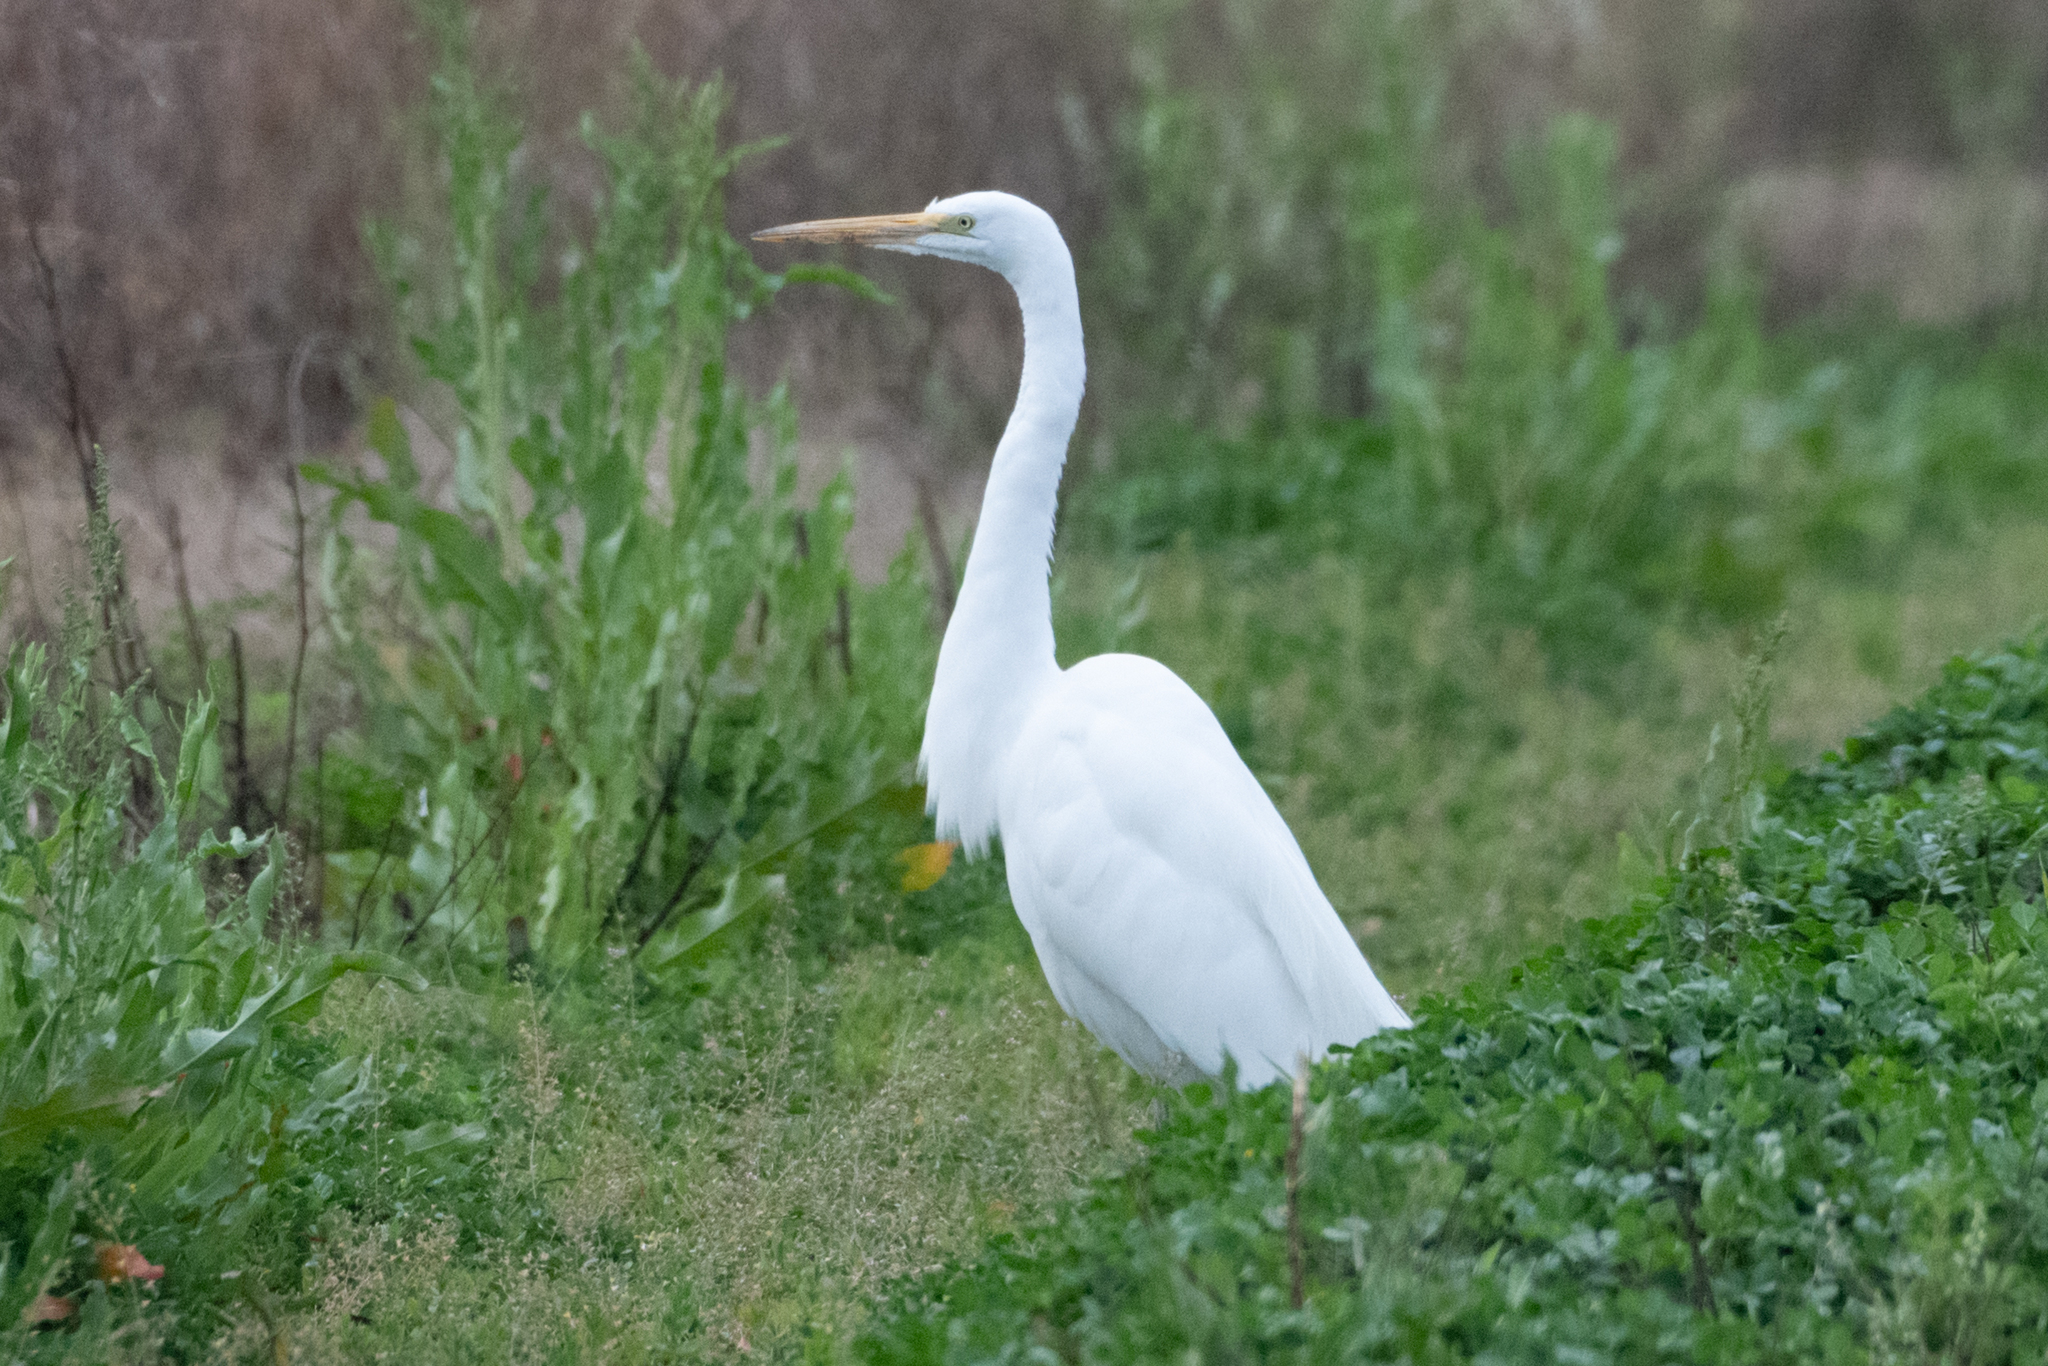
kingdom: Animalia
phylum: Chordata
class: Aves
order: Pelecaniformes
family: Ardeidae
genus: Ardea
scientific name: Ardea alba
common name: Great egret
